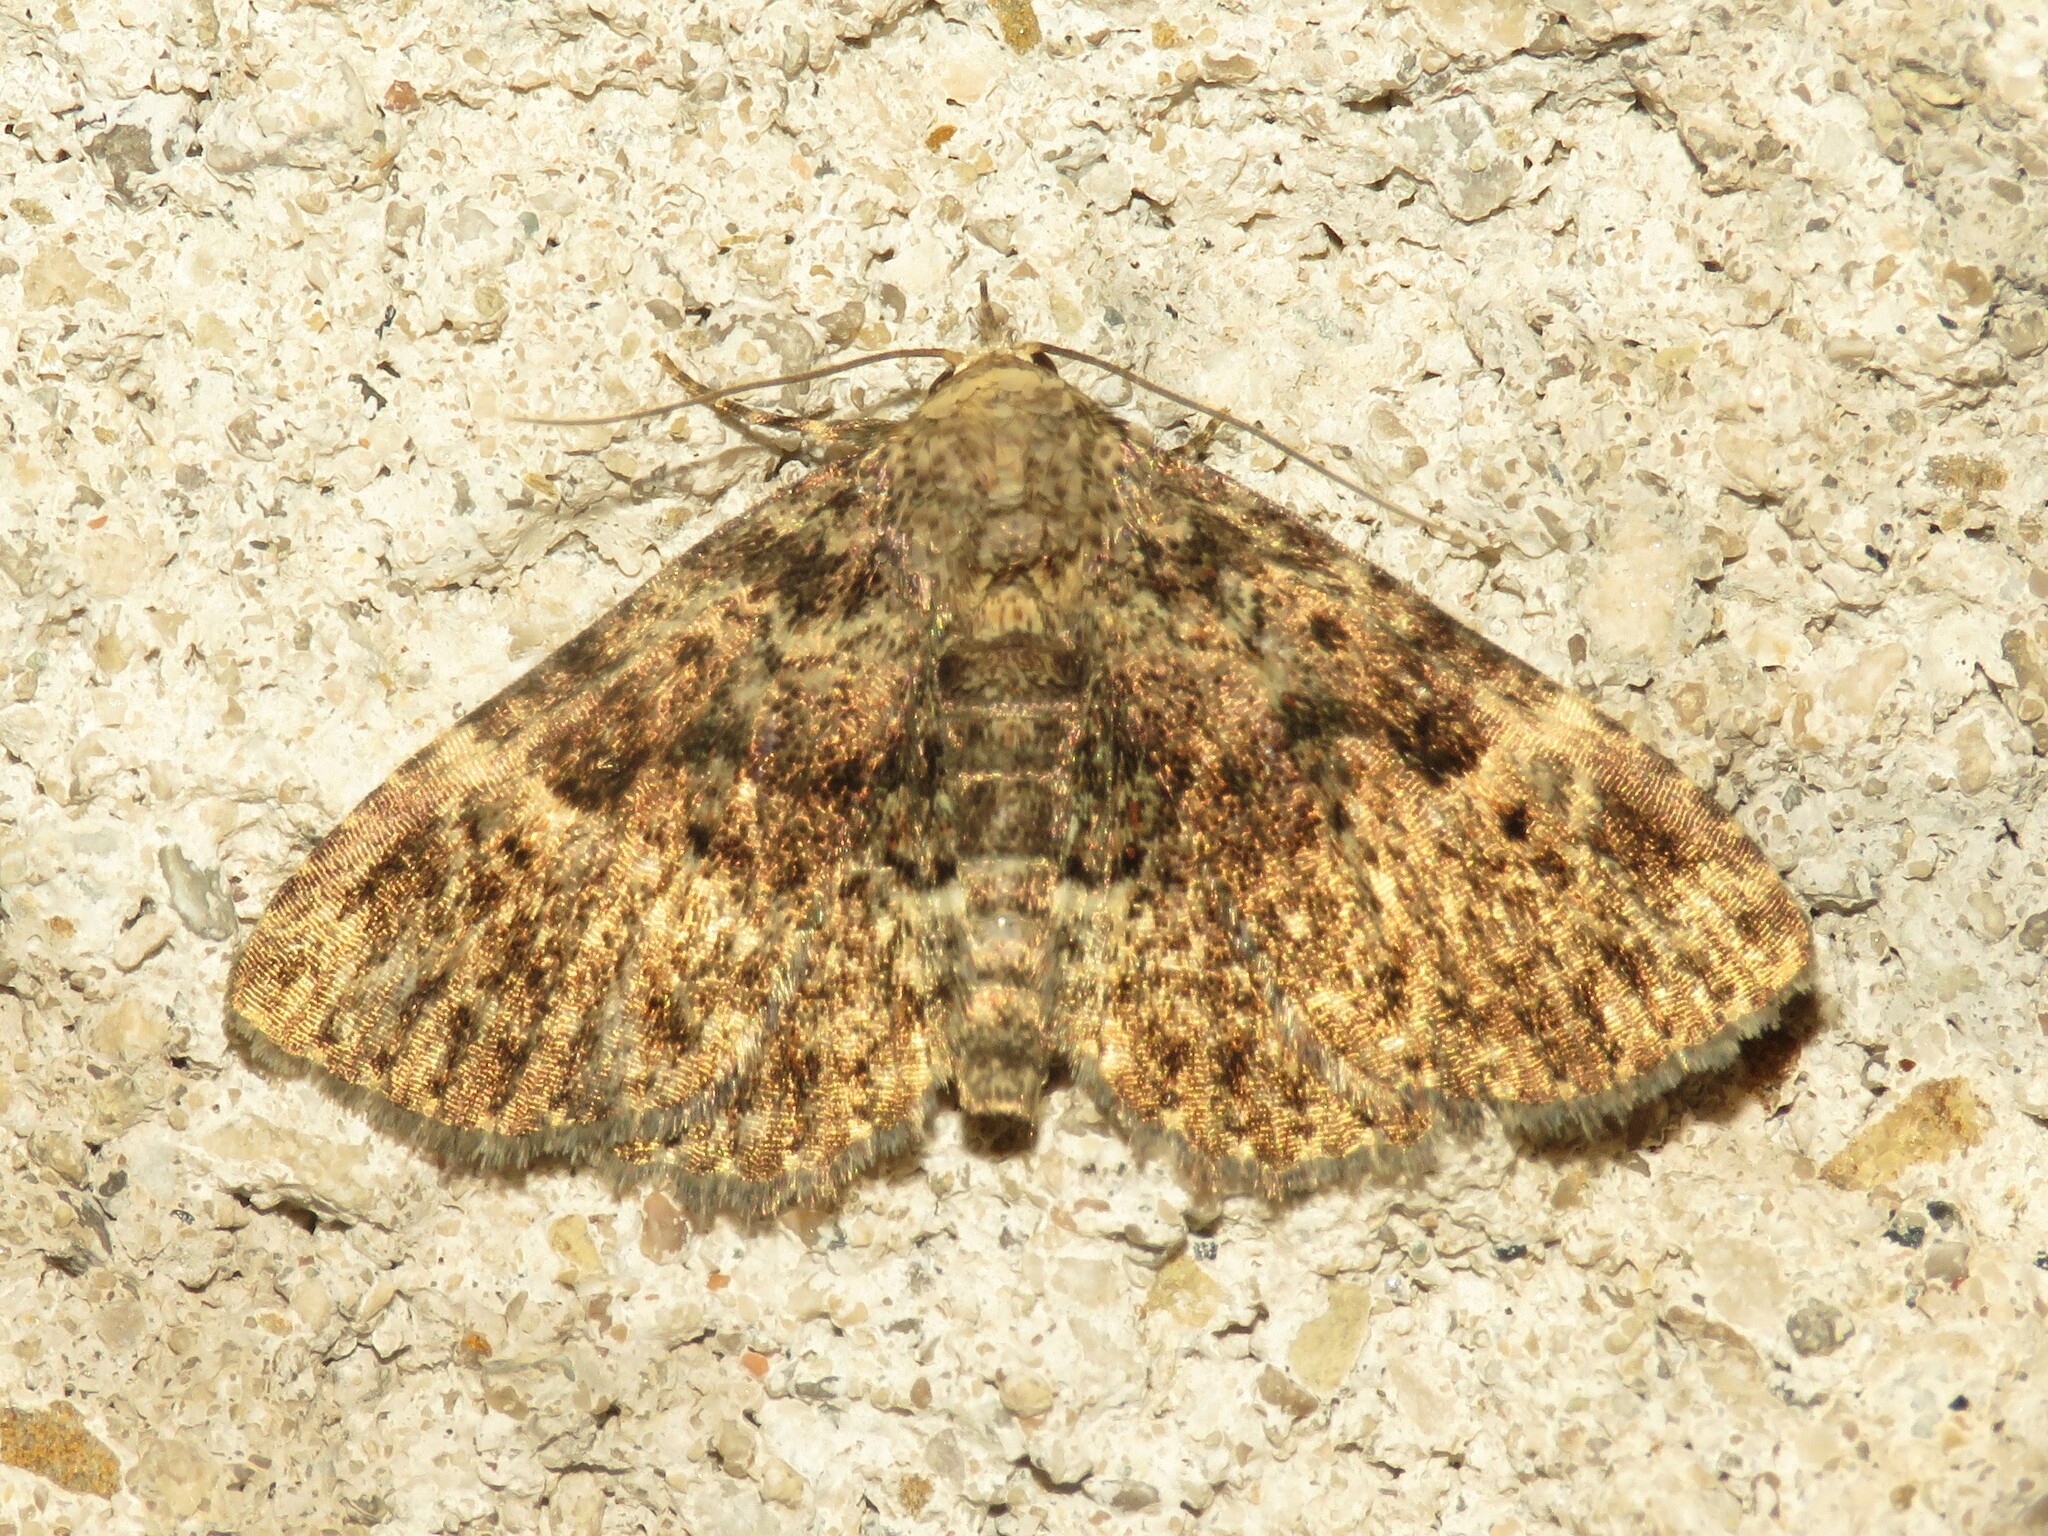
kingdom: Animalia
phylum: Arthropoda
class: Insecta
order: Lepidoptera
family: Erebidae
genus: Metalectra
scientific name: Metalectra discalis
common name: Common fungus moth
